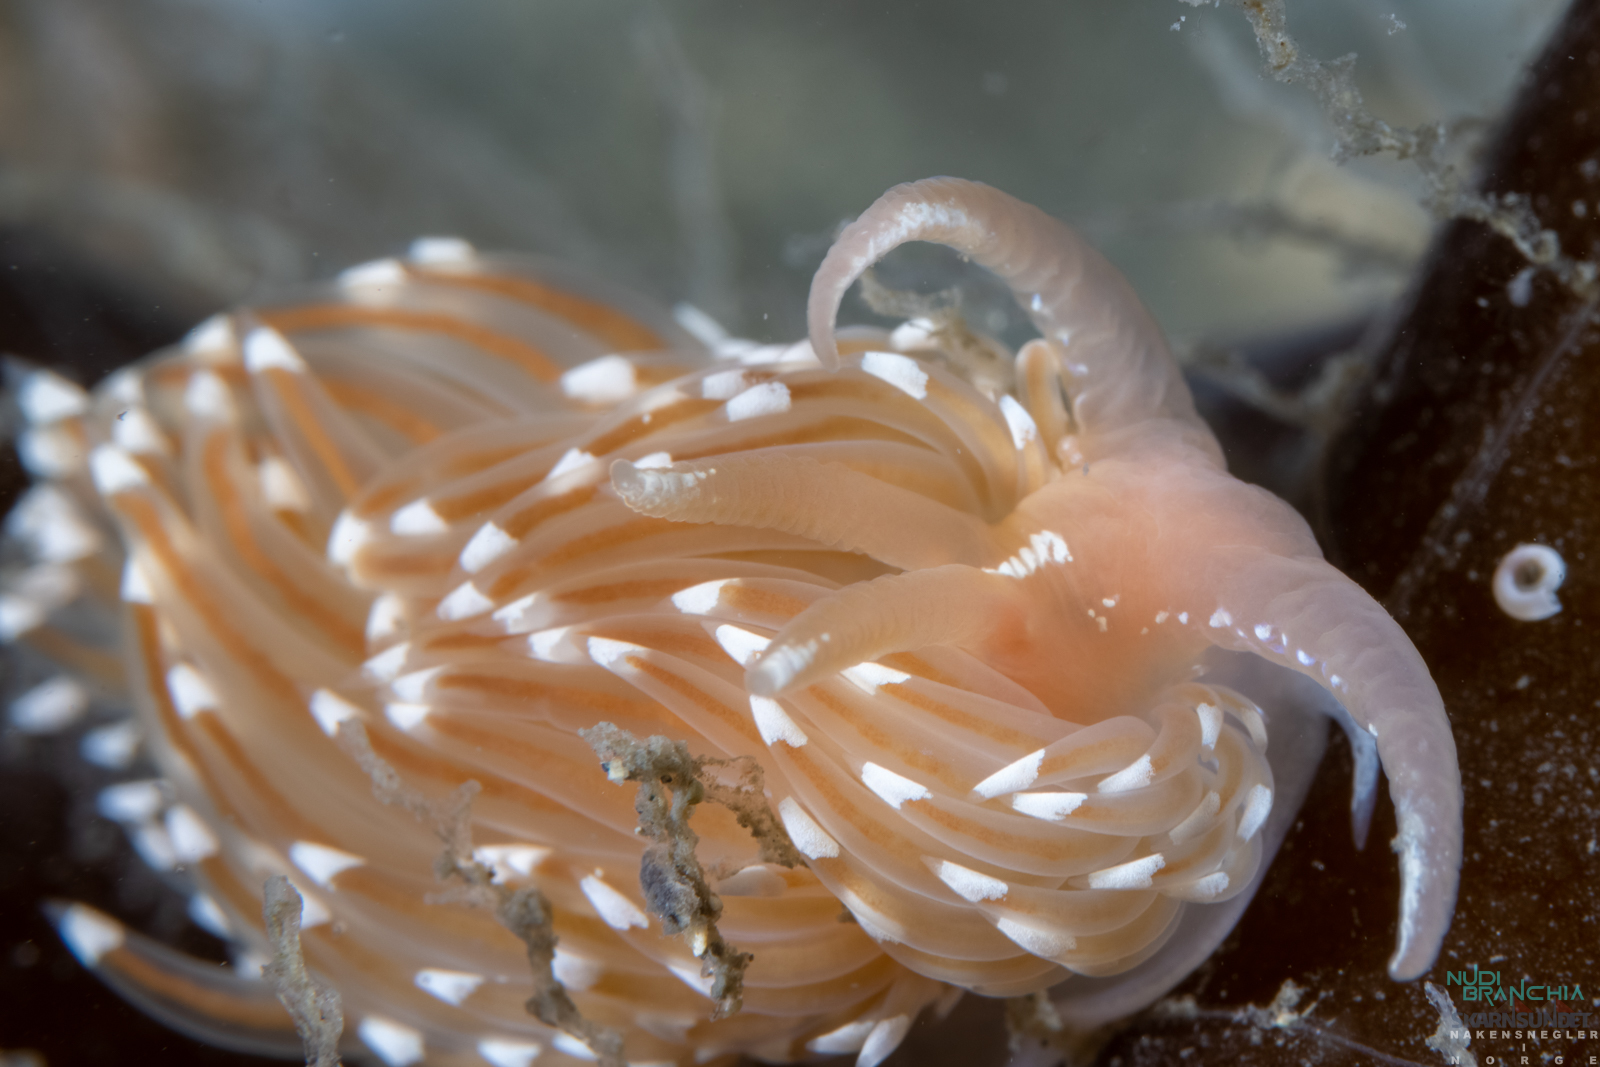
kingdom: Animalia
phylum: Mollusca
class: Gastropoda
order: Nudibranchia
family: Facelinidae
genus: Facelina
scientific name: Facelina bostoniensis
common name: Boston facelina
